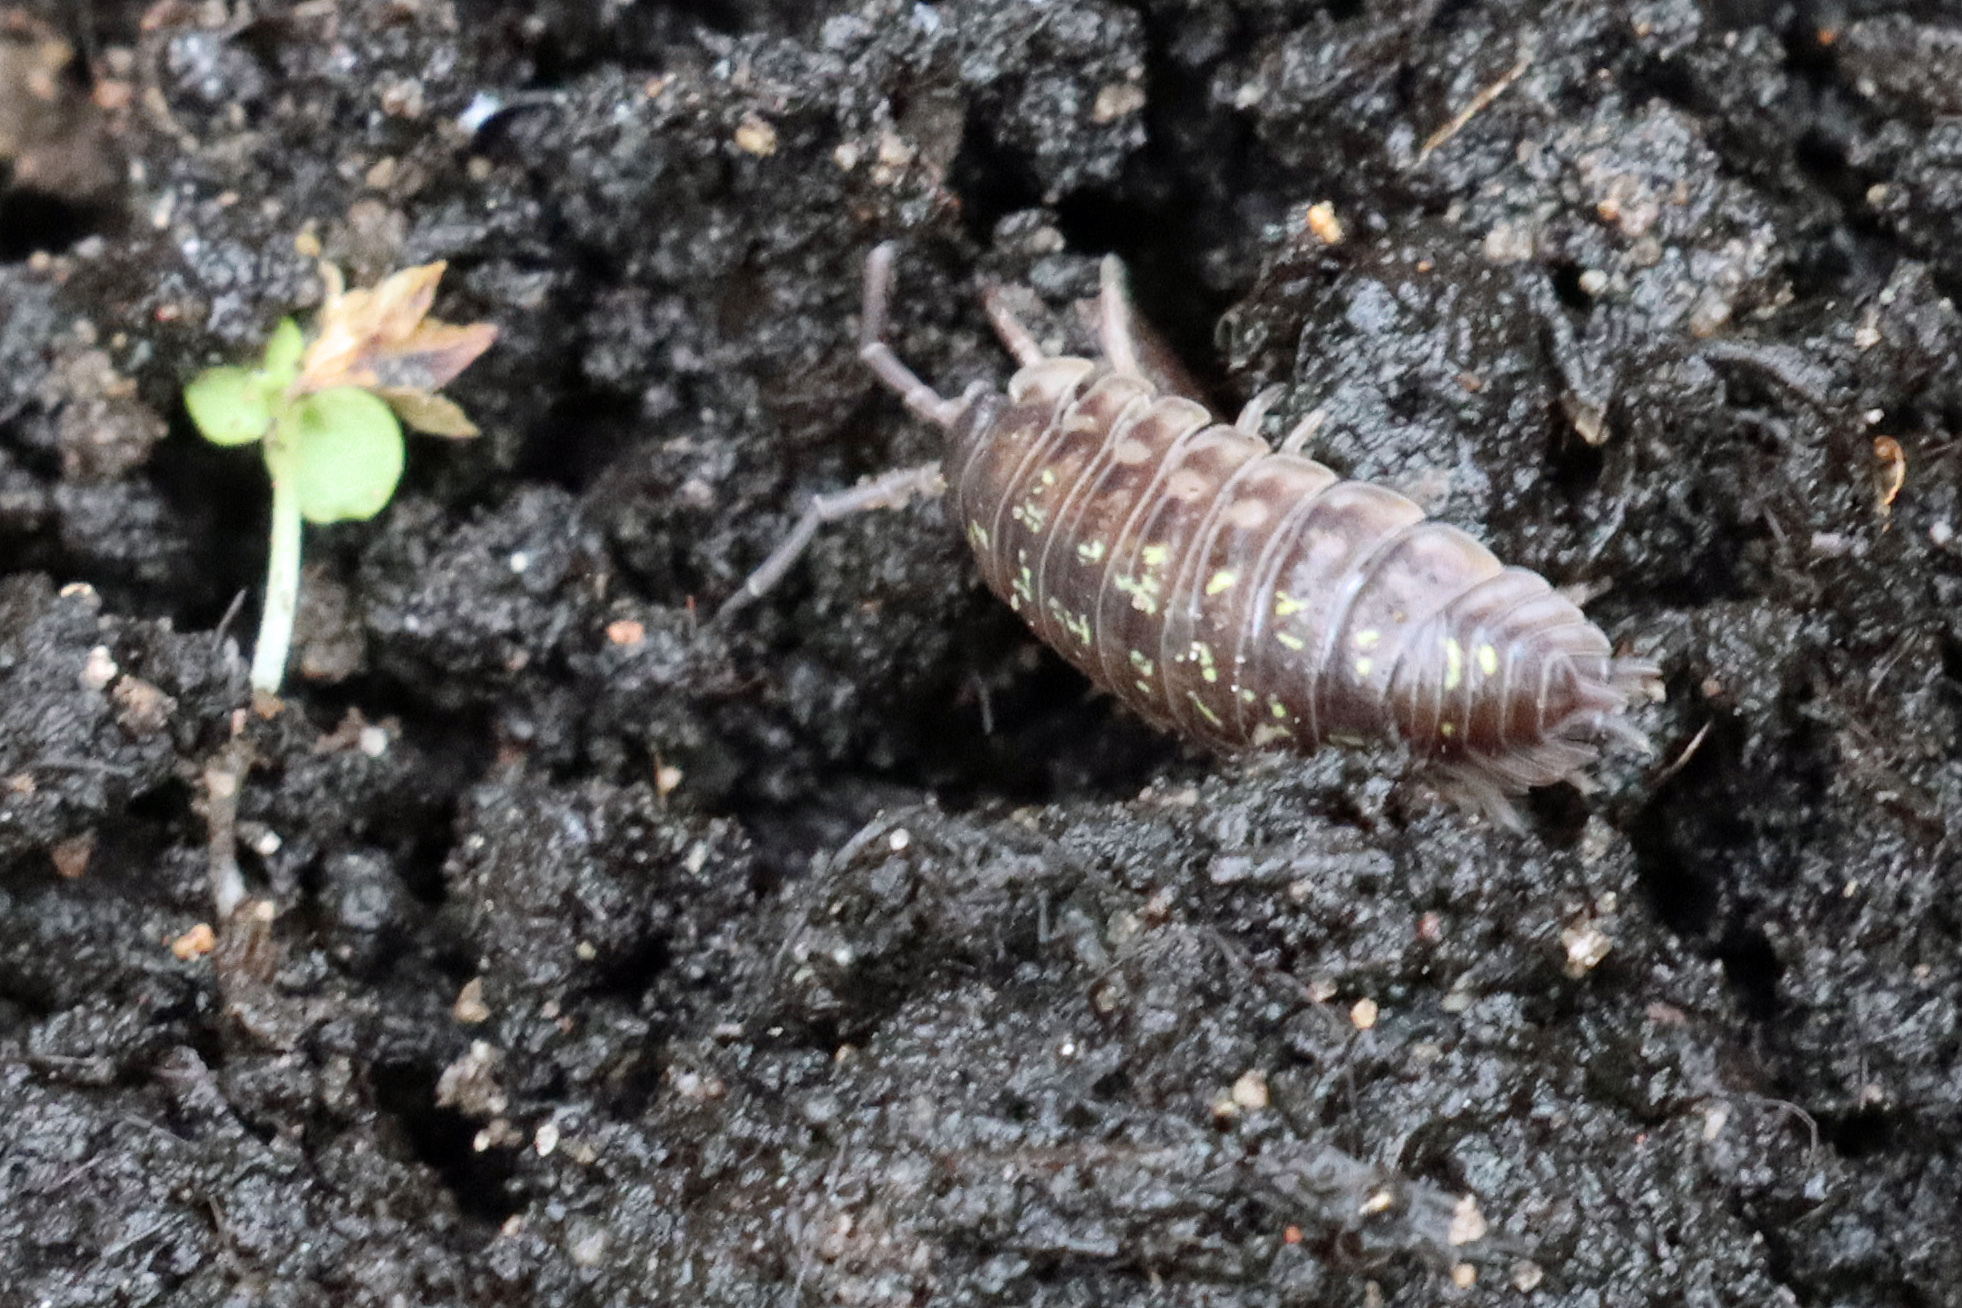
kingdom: Animalia
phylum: Arthropoda
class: Malacostraca
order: Isopoda
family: Oniscidae
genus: Oniscus
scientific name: Oniscus asellus
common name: Common shiny woodlouse
